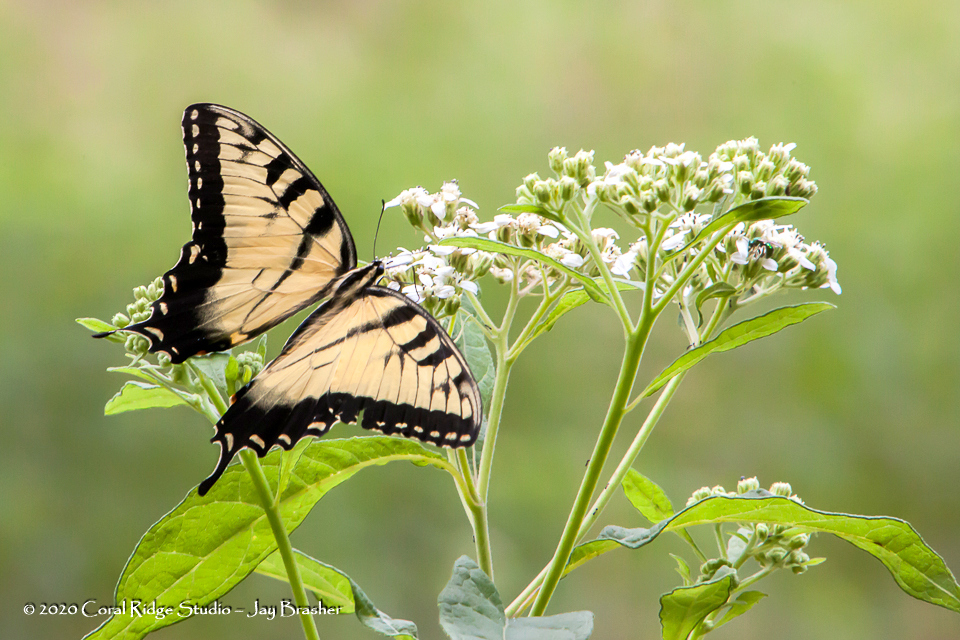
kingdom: Animalia
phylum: Arthropoda
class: Insecta
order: Lepidoptera
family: Papilionidae
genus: Papilio
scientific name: Papilio glaucus
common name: Tiger swallowtail
